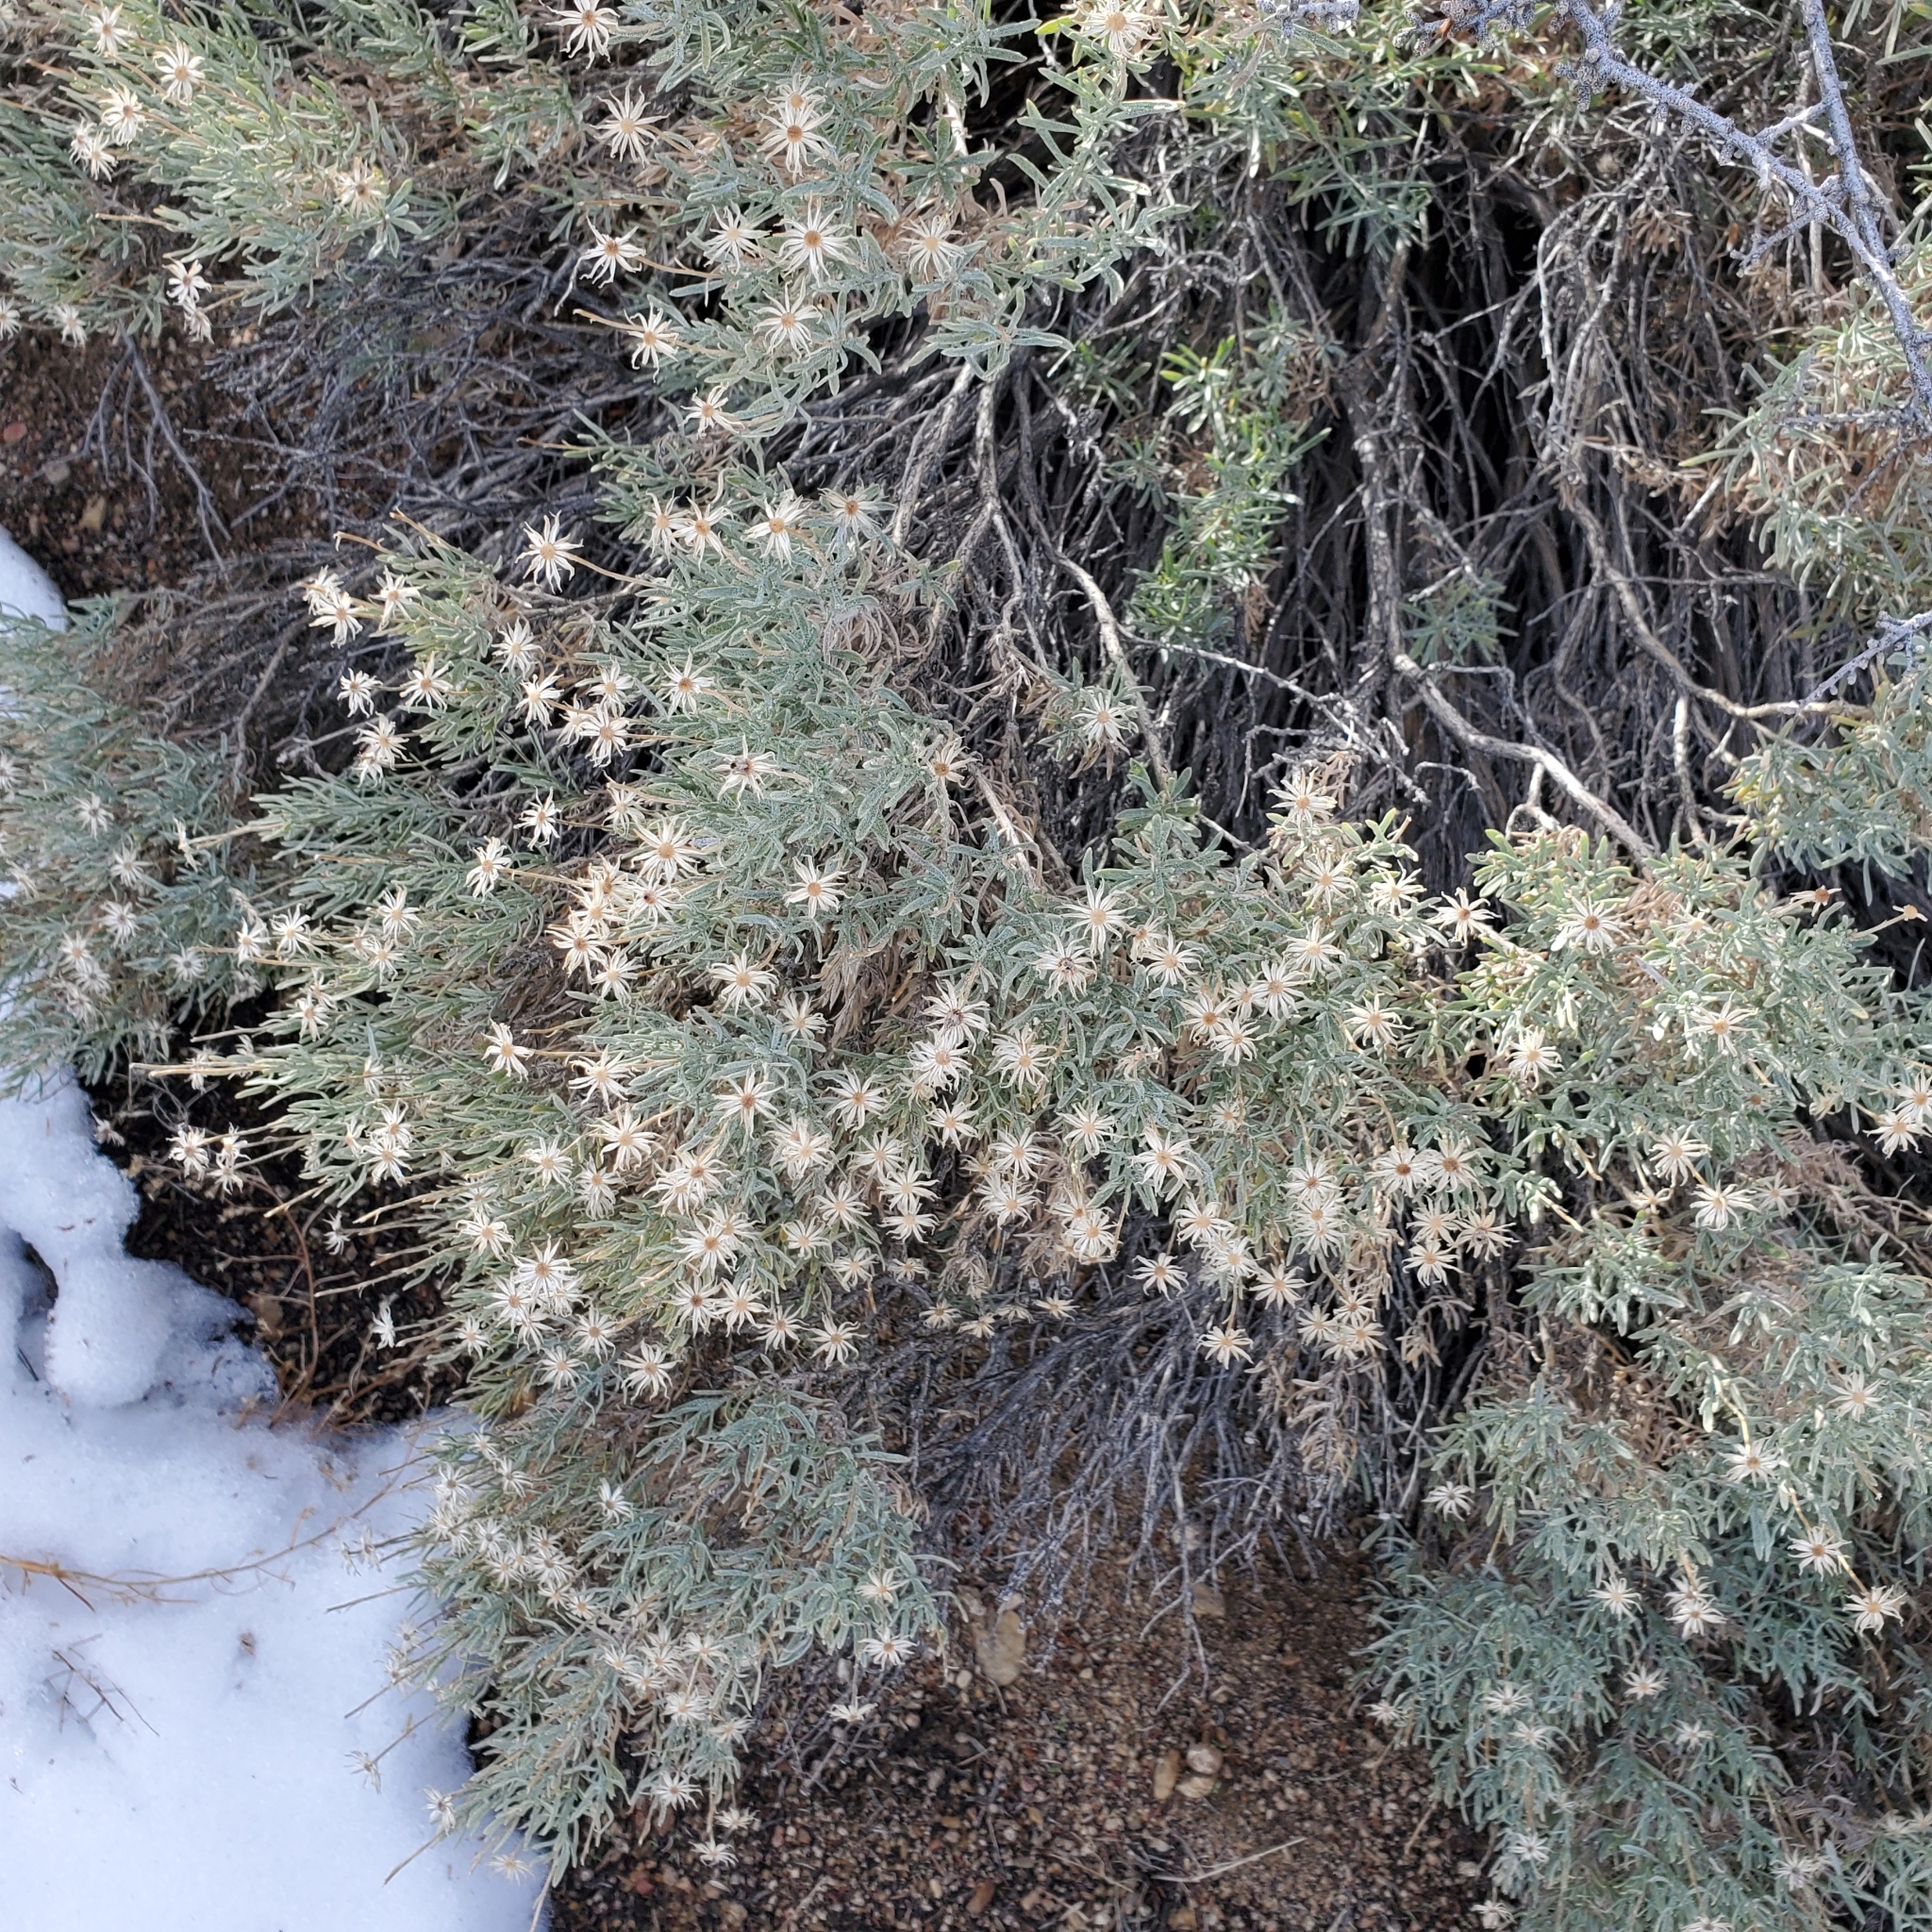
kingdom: Plantae
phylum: Tracheophyta
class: Magnoliopsida
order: Asterales
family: Asteraceae
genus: Ericameria
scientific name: Ericameria linearifolia
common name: Interior goldenbush
